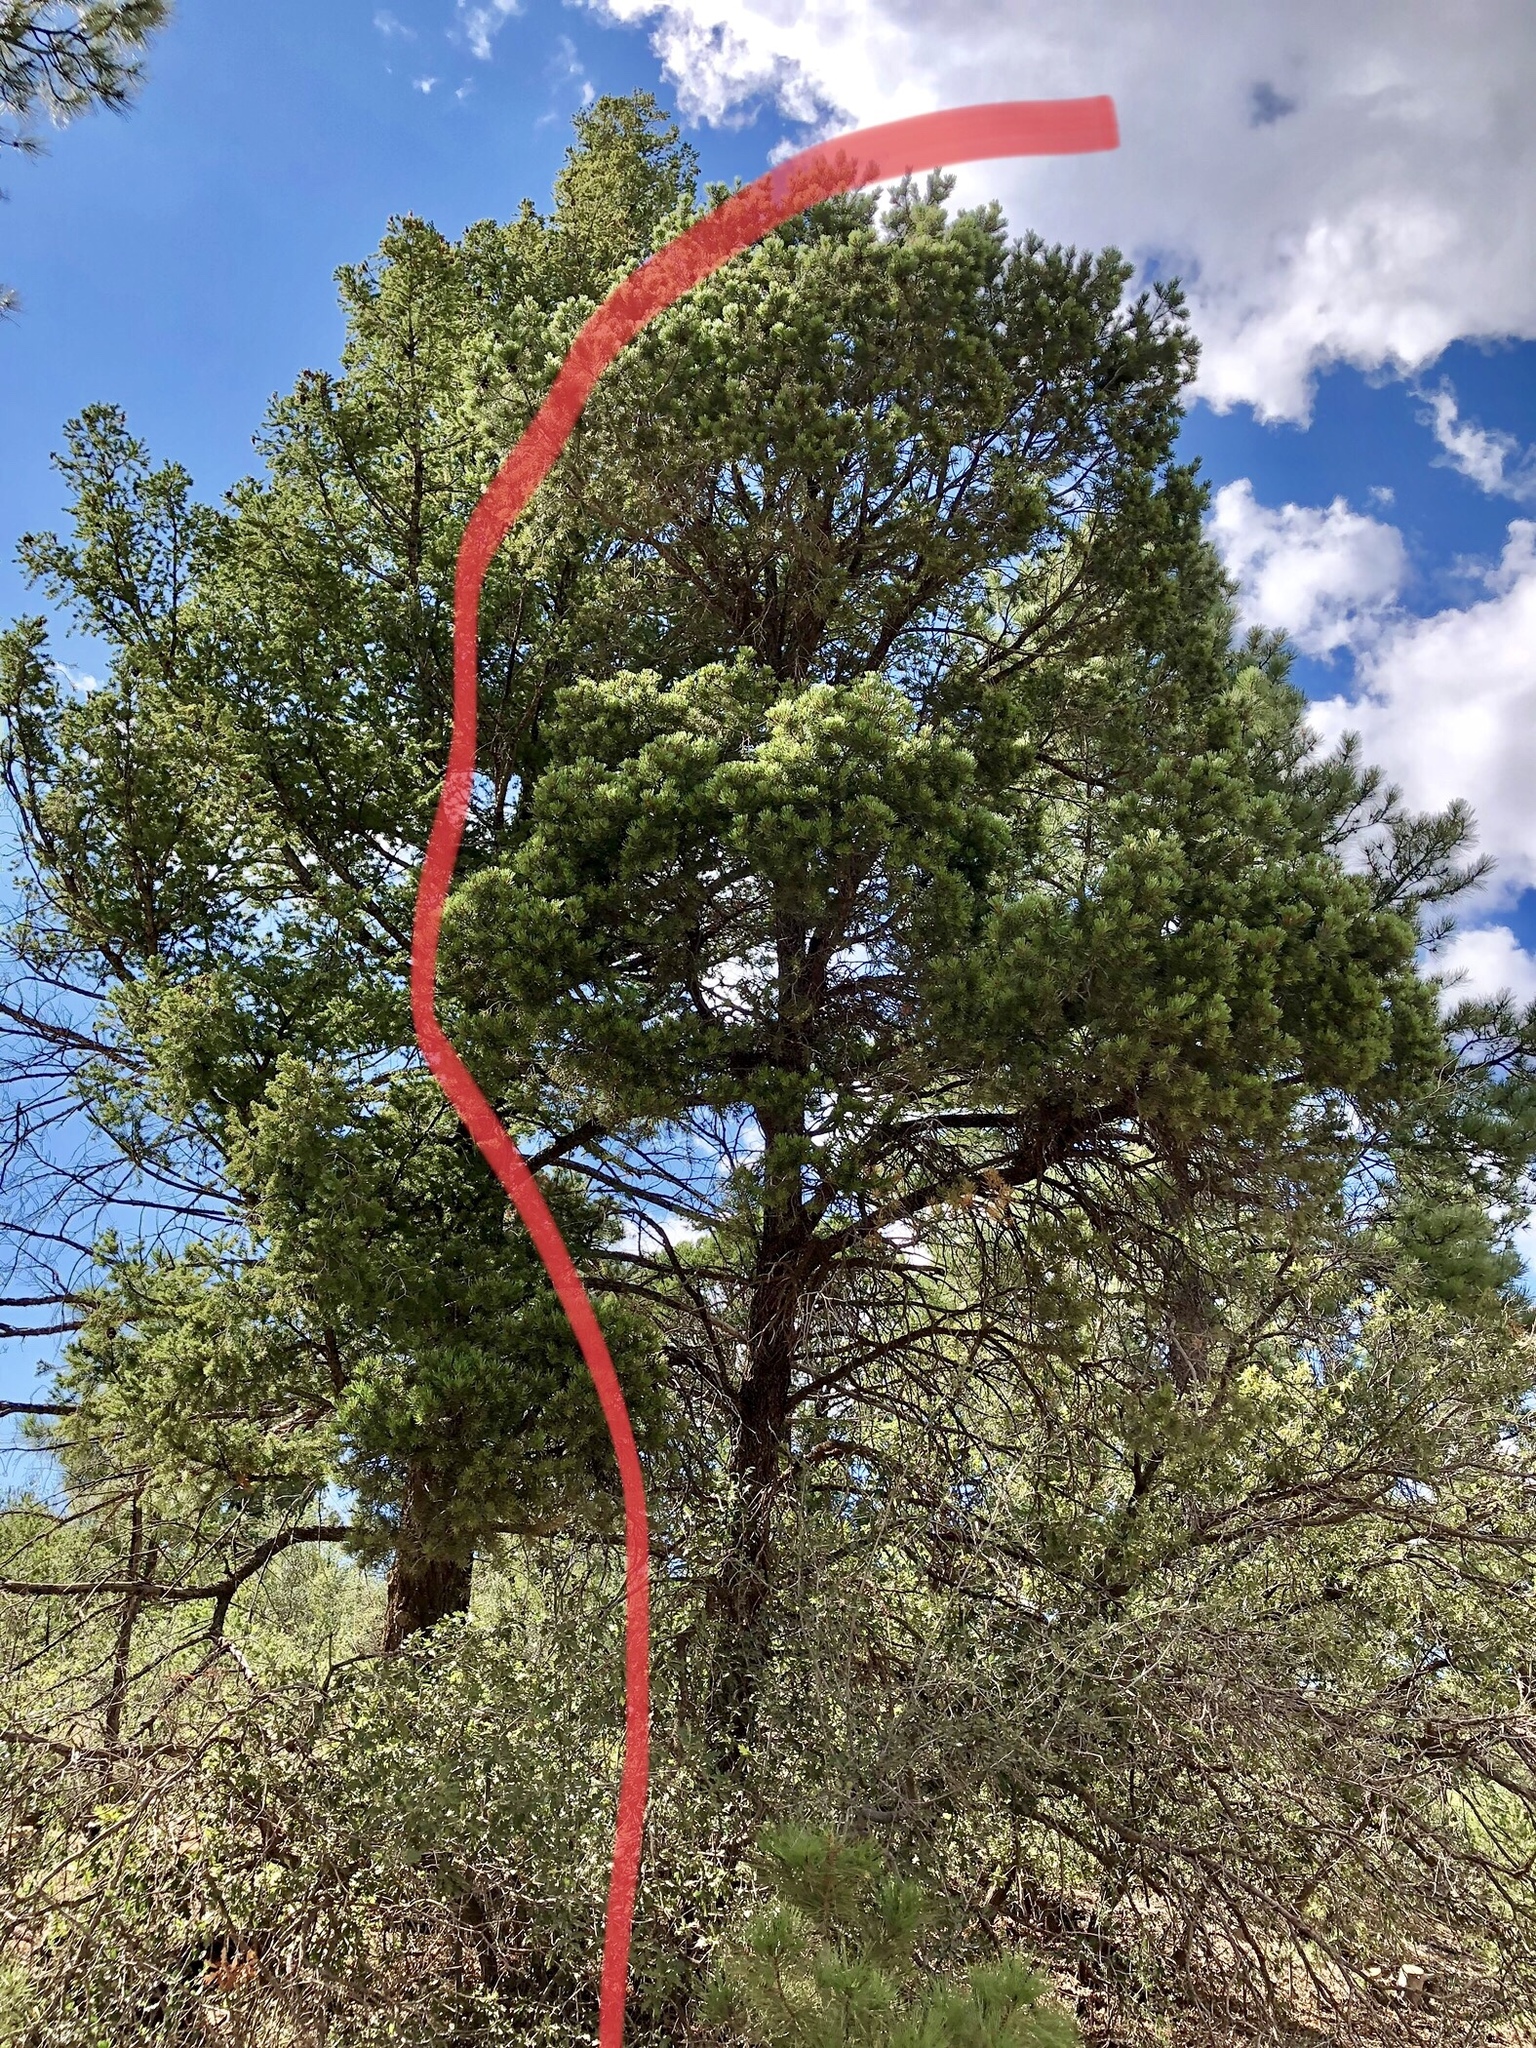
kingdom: Plantae
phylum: Tracheophyta
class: Pinopsida
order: Pinales
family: Pinaceae
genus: Pinus
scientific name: Pinus edulis
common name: Colorado pinyon
